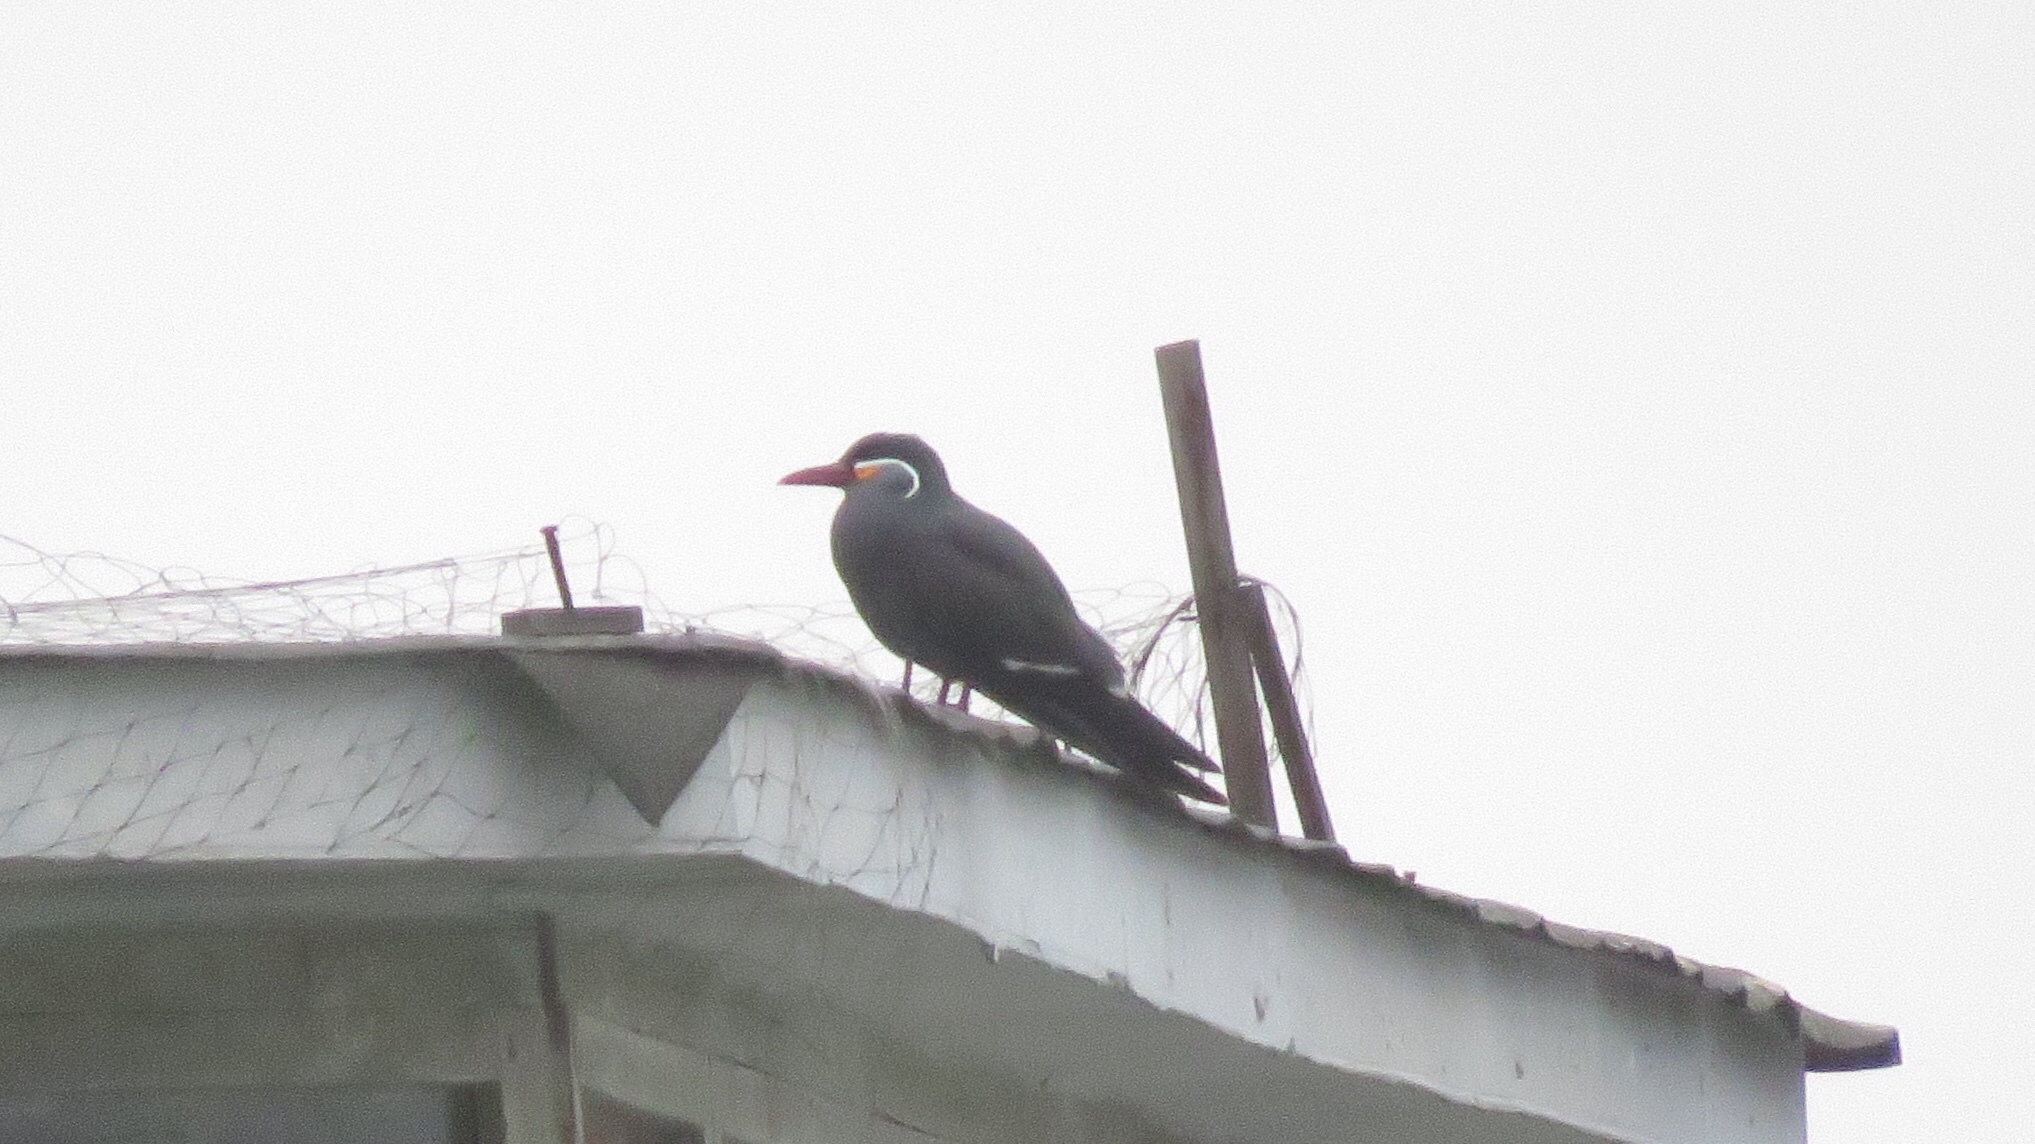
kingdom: Animalia
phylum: Chordata
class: Aves
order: Charadriiformes
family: Laridae
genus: Larosterna
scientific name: Larosterna inca
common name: Inca tern
